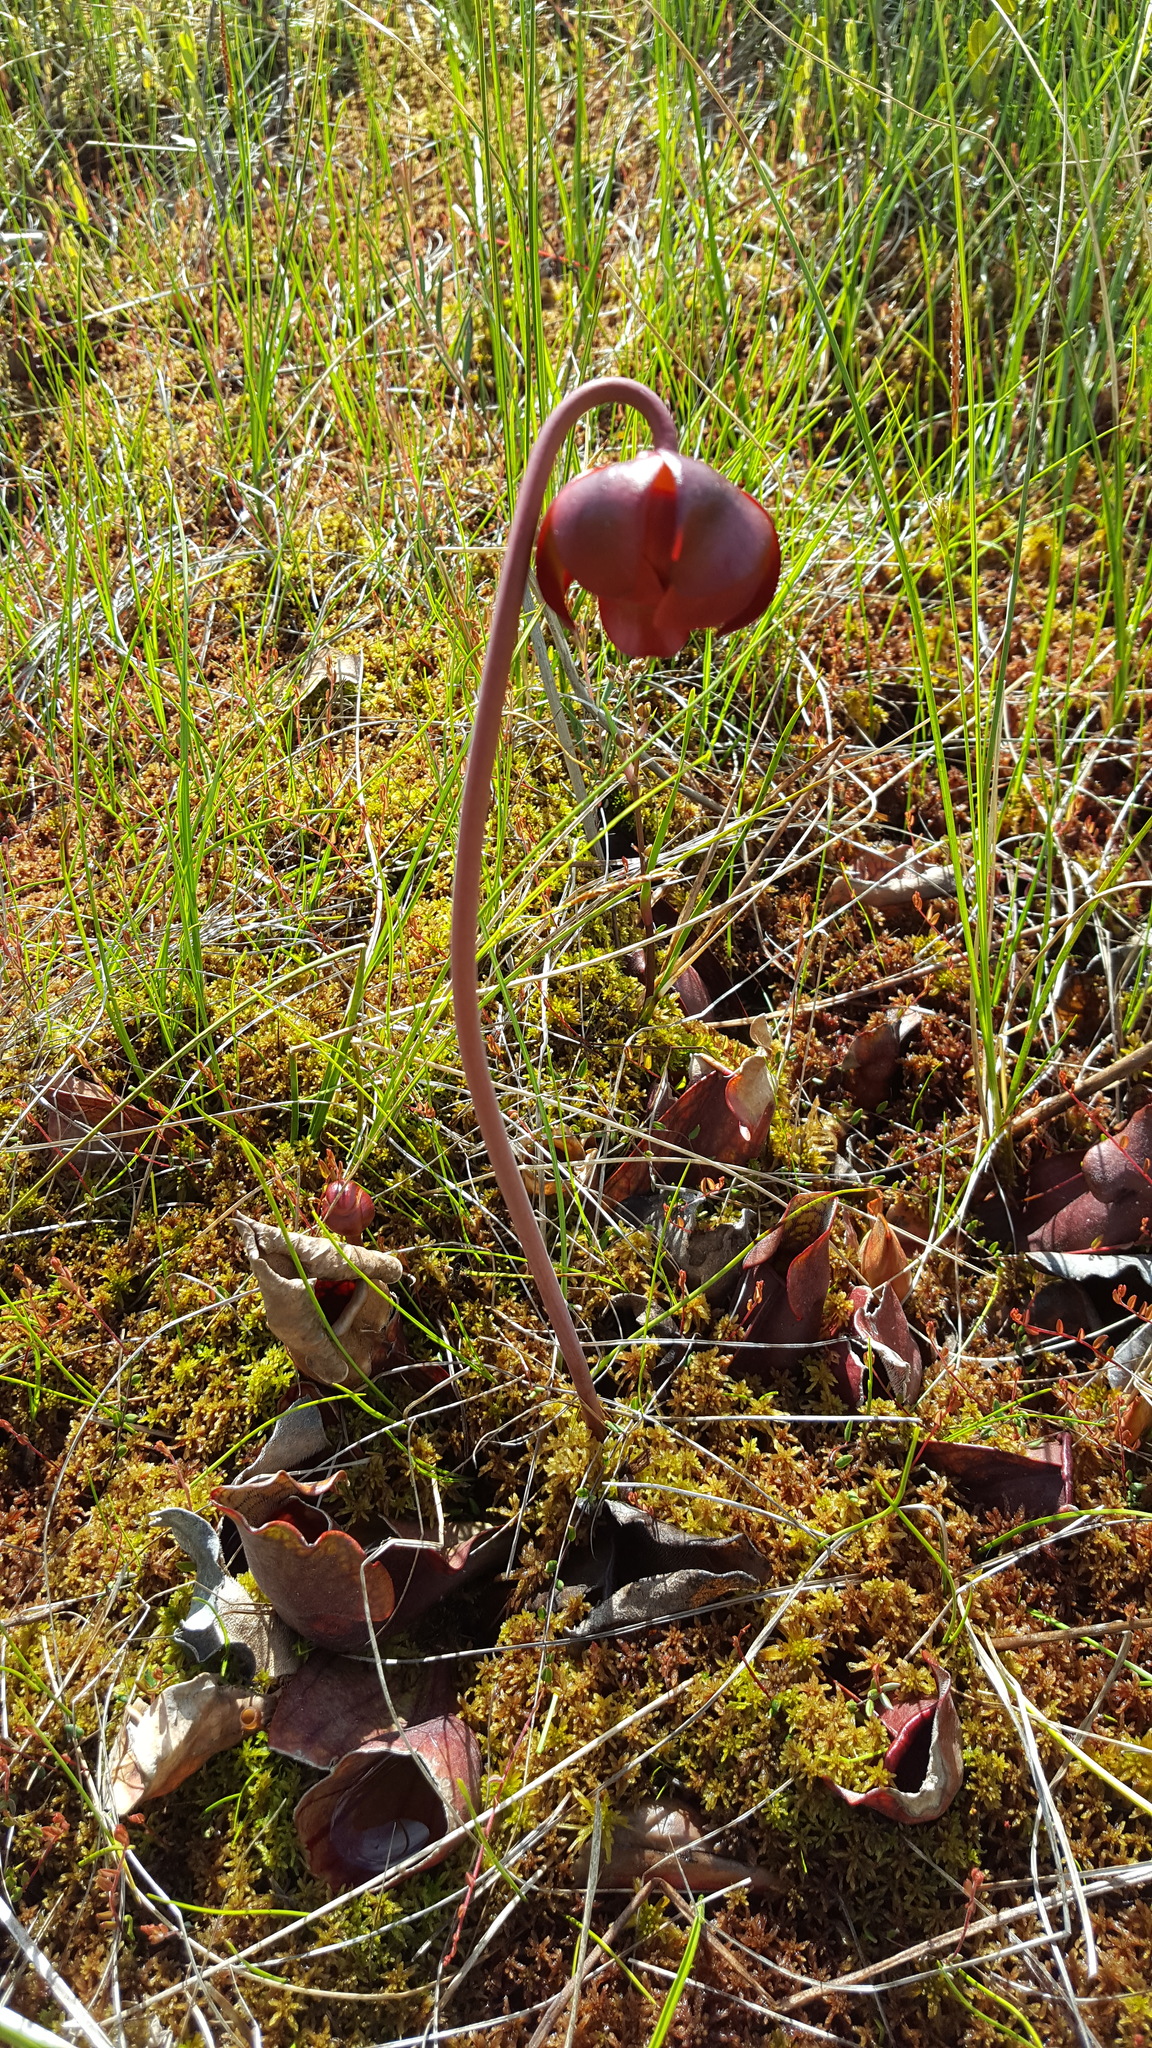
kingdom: Plantae
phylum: Tracheophyta
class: Magnoliopsida
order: Ericales
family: Sarraceniaceae
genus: Sarracenia
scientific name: Sarracenia purpurea
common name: Pitcherplant
